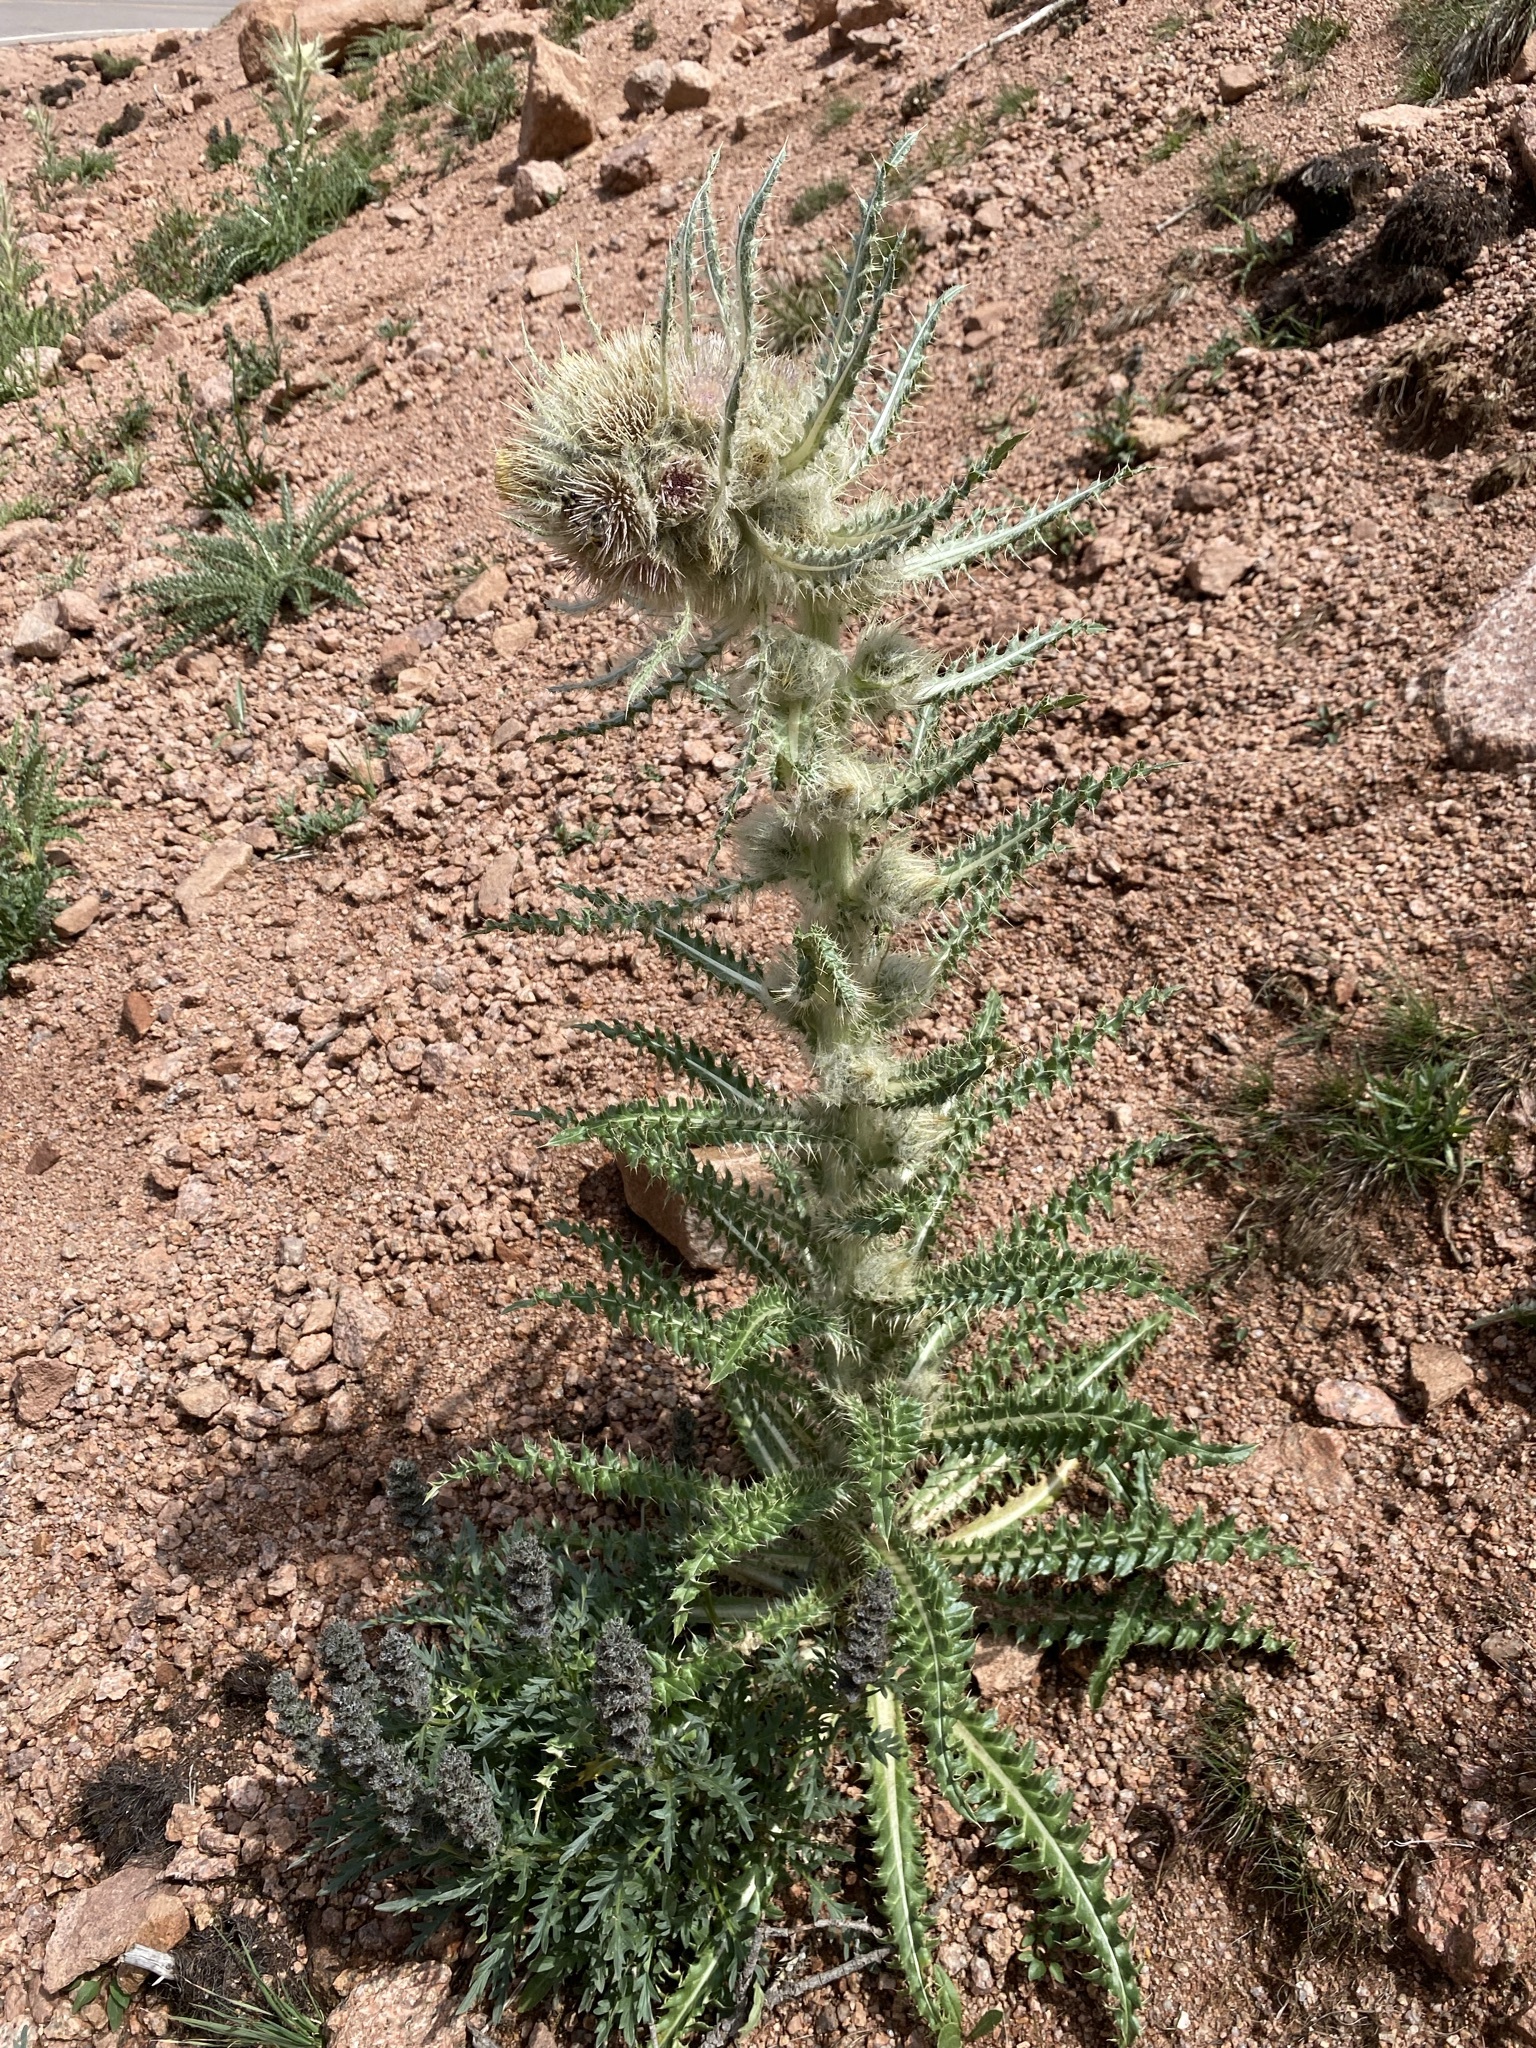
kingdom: Plantae
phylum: Tracheophyta
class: Magnoliopsida
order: Asterales
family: Asteraceae
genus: Cirsium
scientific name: Cirsium scopulorum
